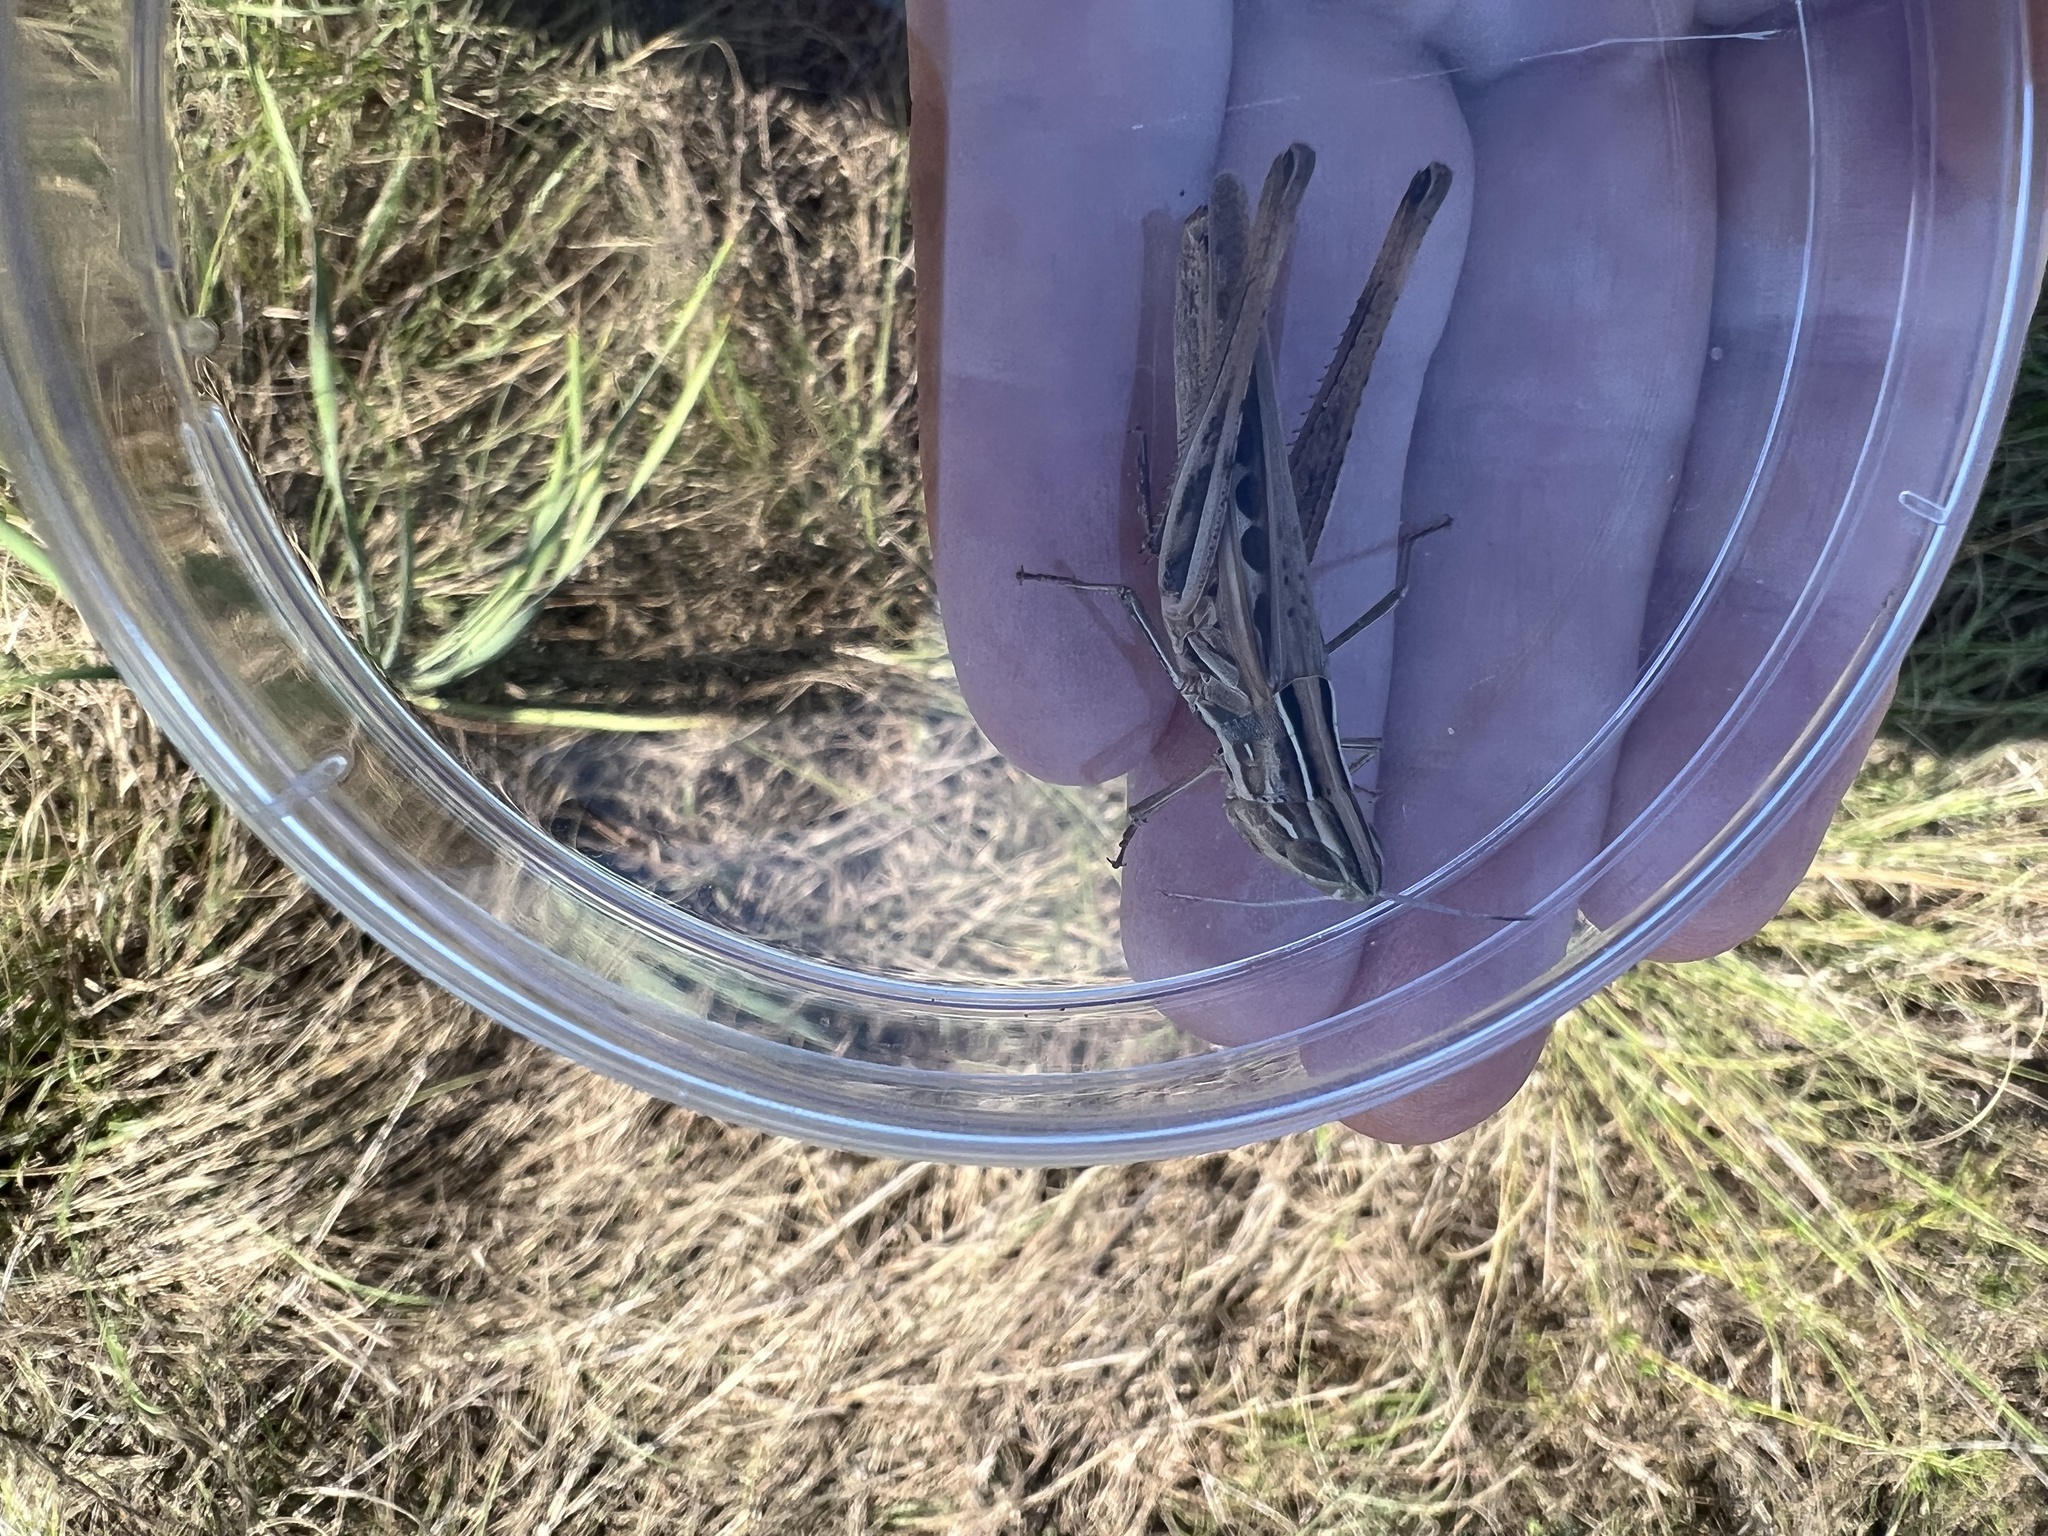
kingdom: Animalia
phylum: Arthropoda
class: Insecta
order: Orthoptera
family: Acrididae
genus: Syrbula
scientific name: Syrbula admirabilis
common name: Handsome grasshopper
